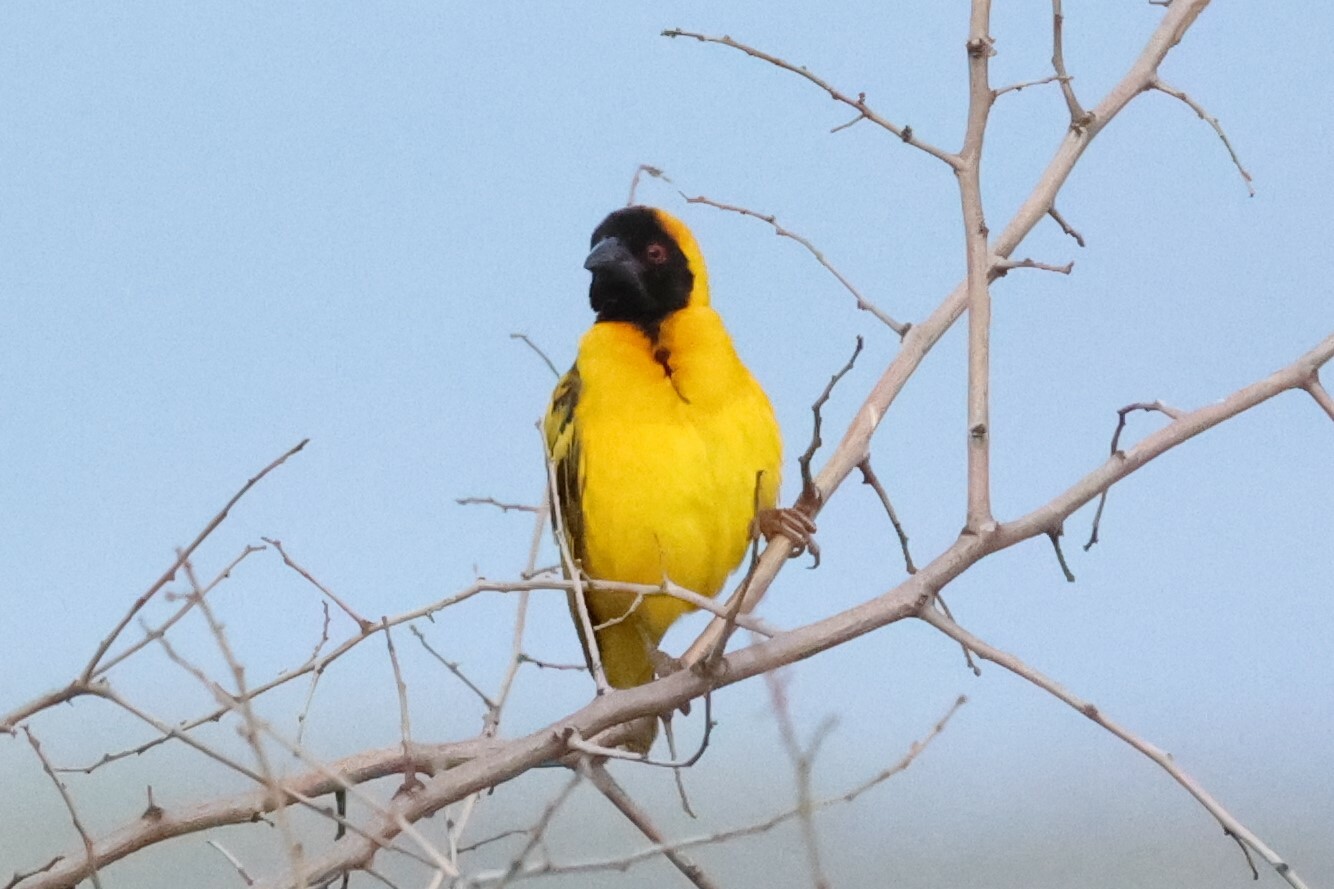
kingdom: Animalia
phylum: Chordata
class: Aves
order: Passeriformes
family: Ploceidae
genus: Ploceus
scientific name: Ploceus cucullatus
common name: Village weaver
